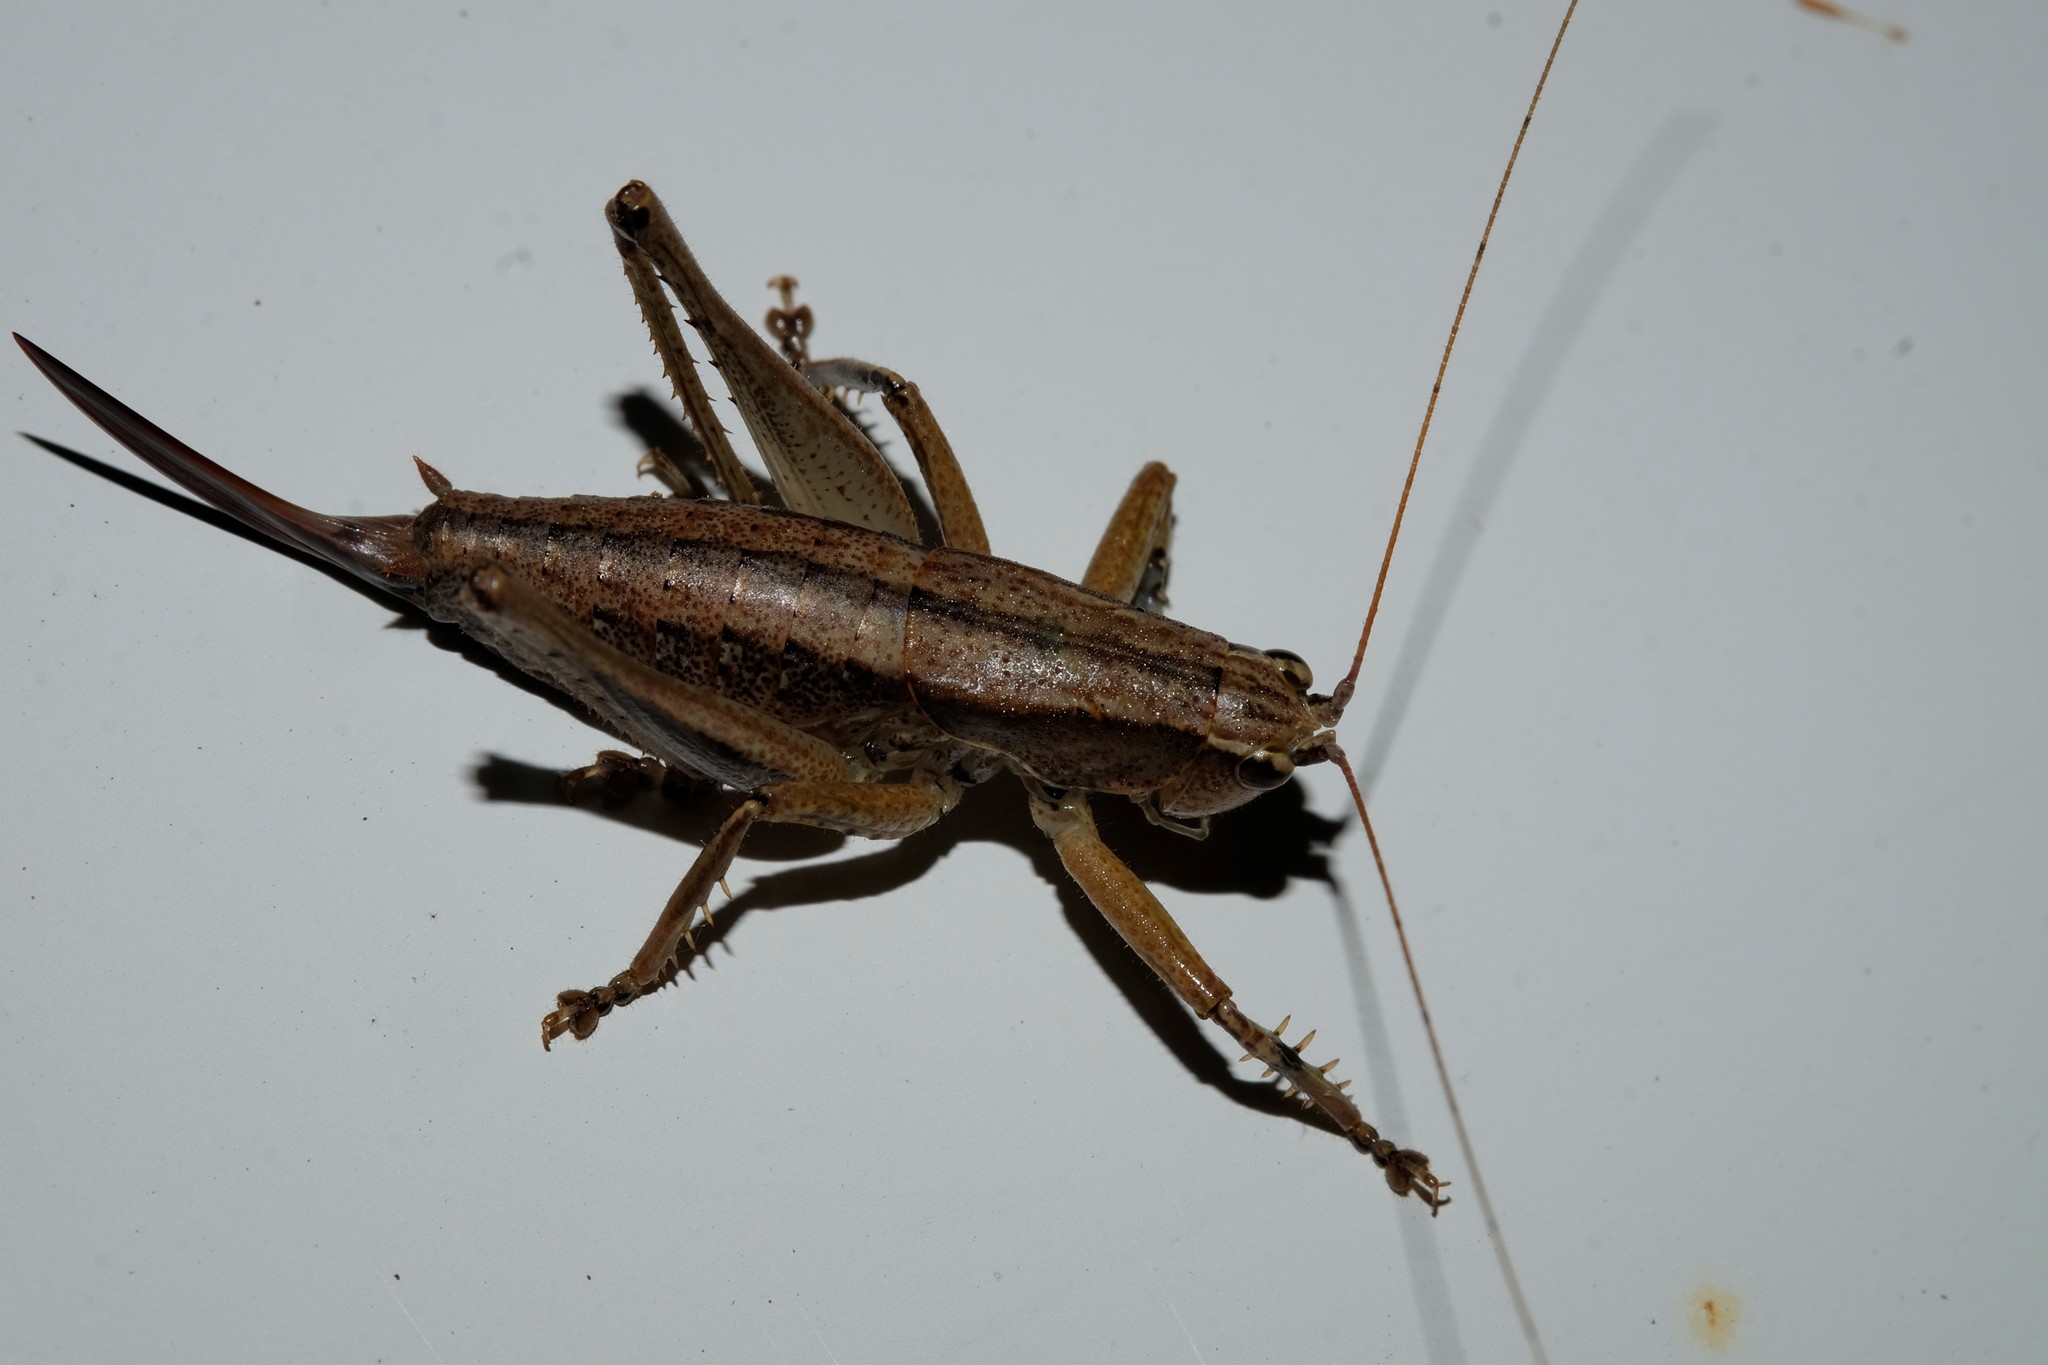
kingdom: Animalia
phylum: Arthropoda
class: Insecta
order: Orthoptera
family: Tettigoniidae
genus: Requena
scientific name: Requena baraya
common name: Common eastern requena
